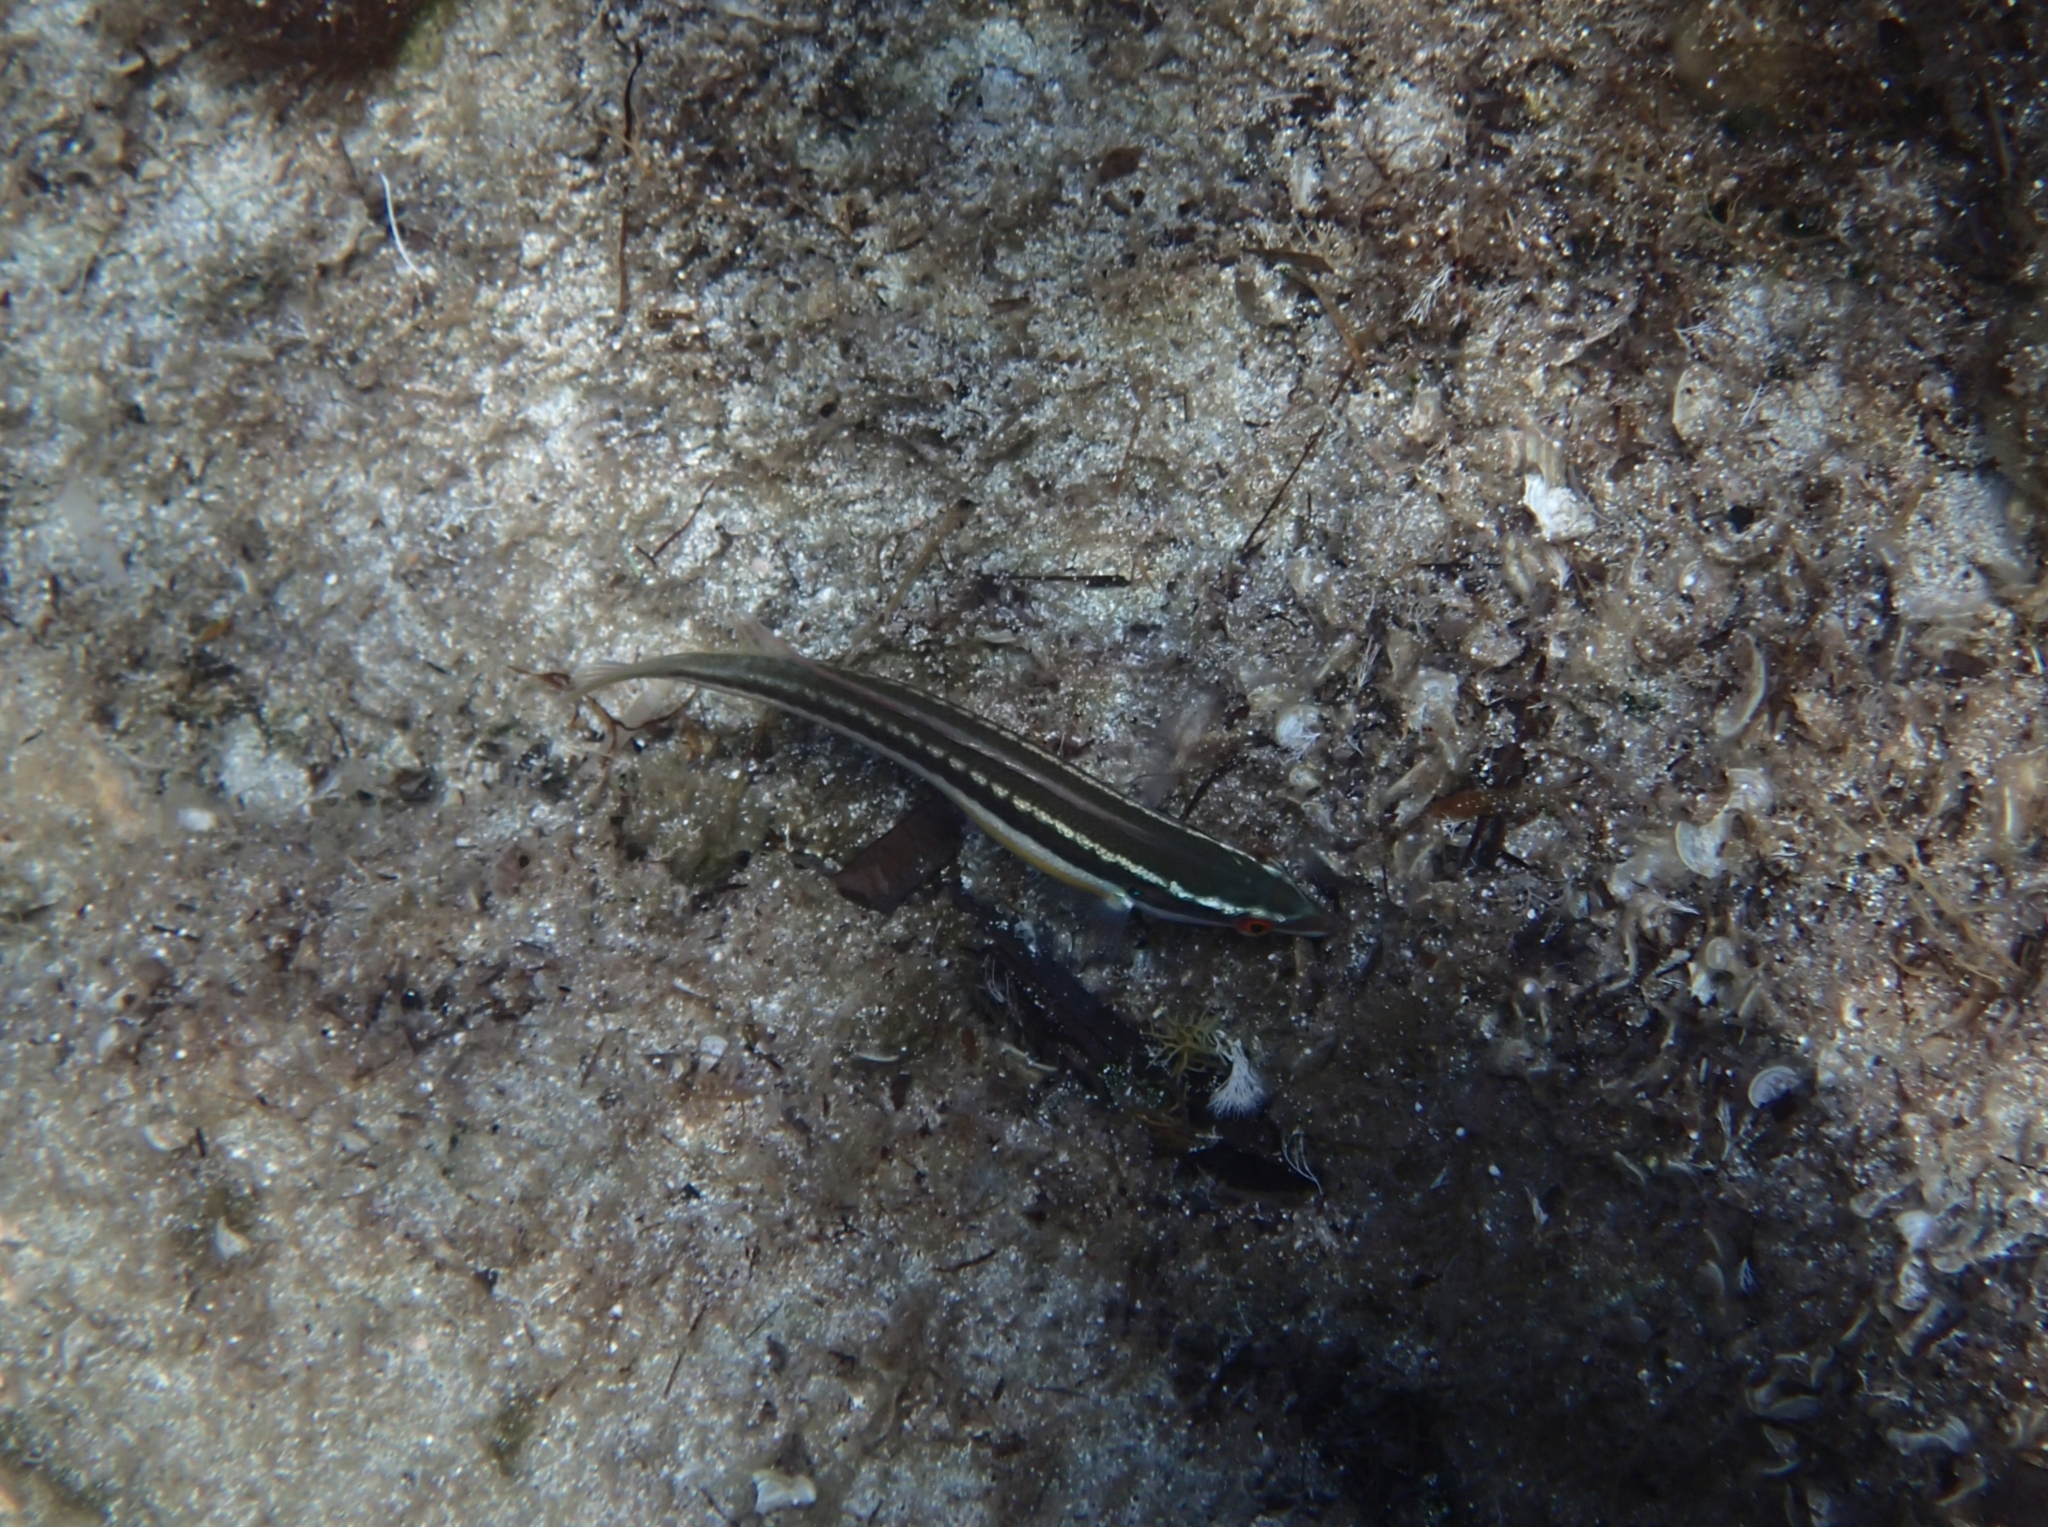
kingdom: Animalia
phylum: Chordata
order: Perciformes
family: Labridae
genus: Coris
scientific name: Coris julis
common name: Rainbow wrasse
